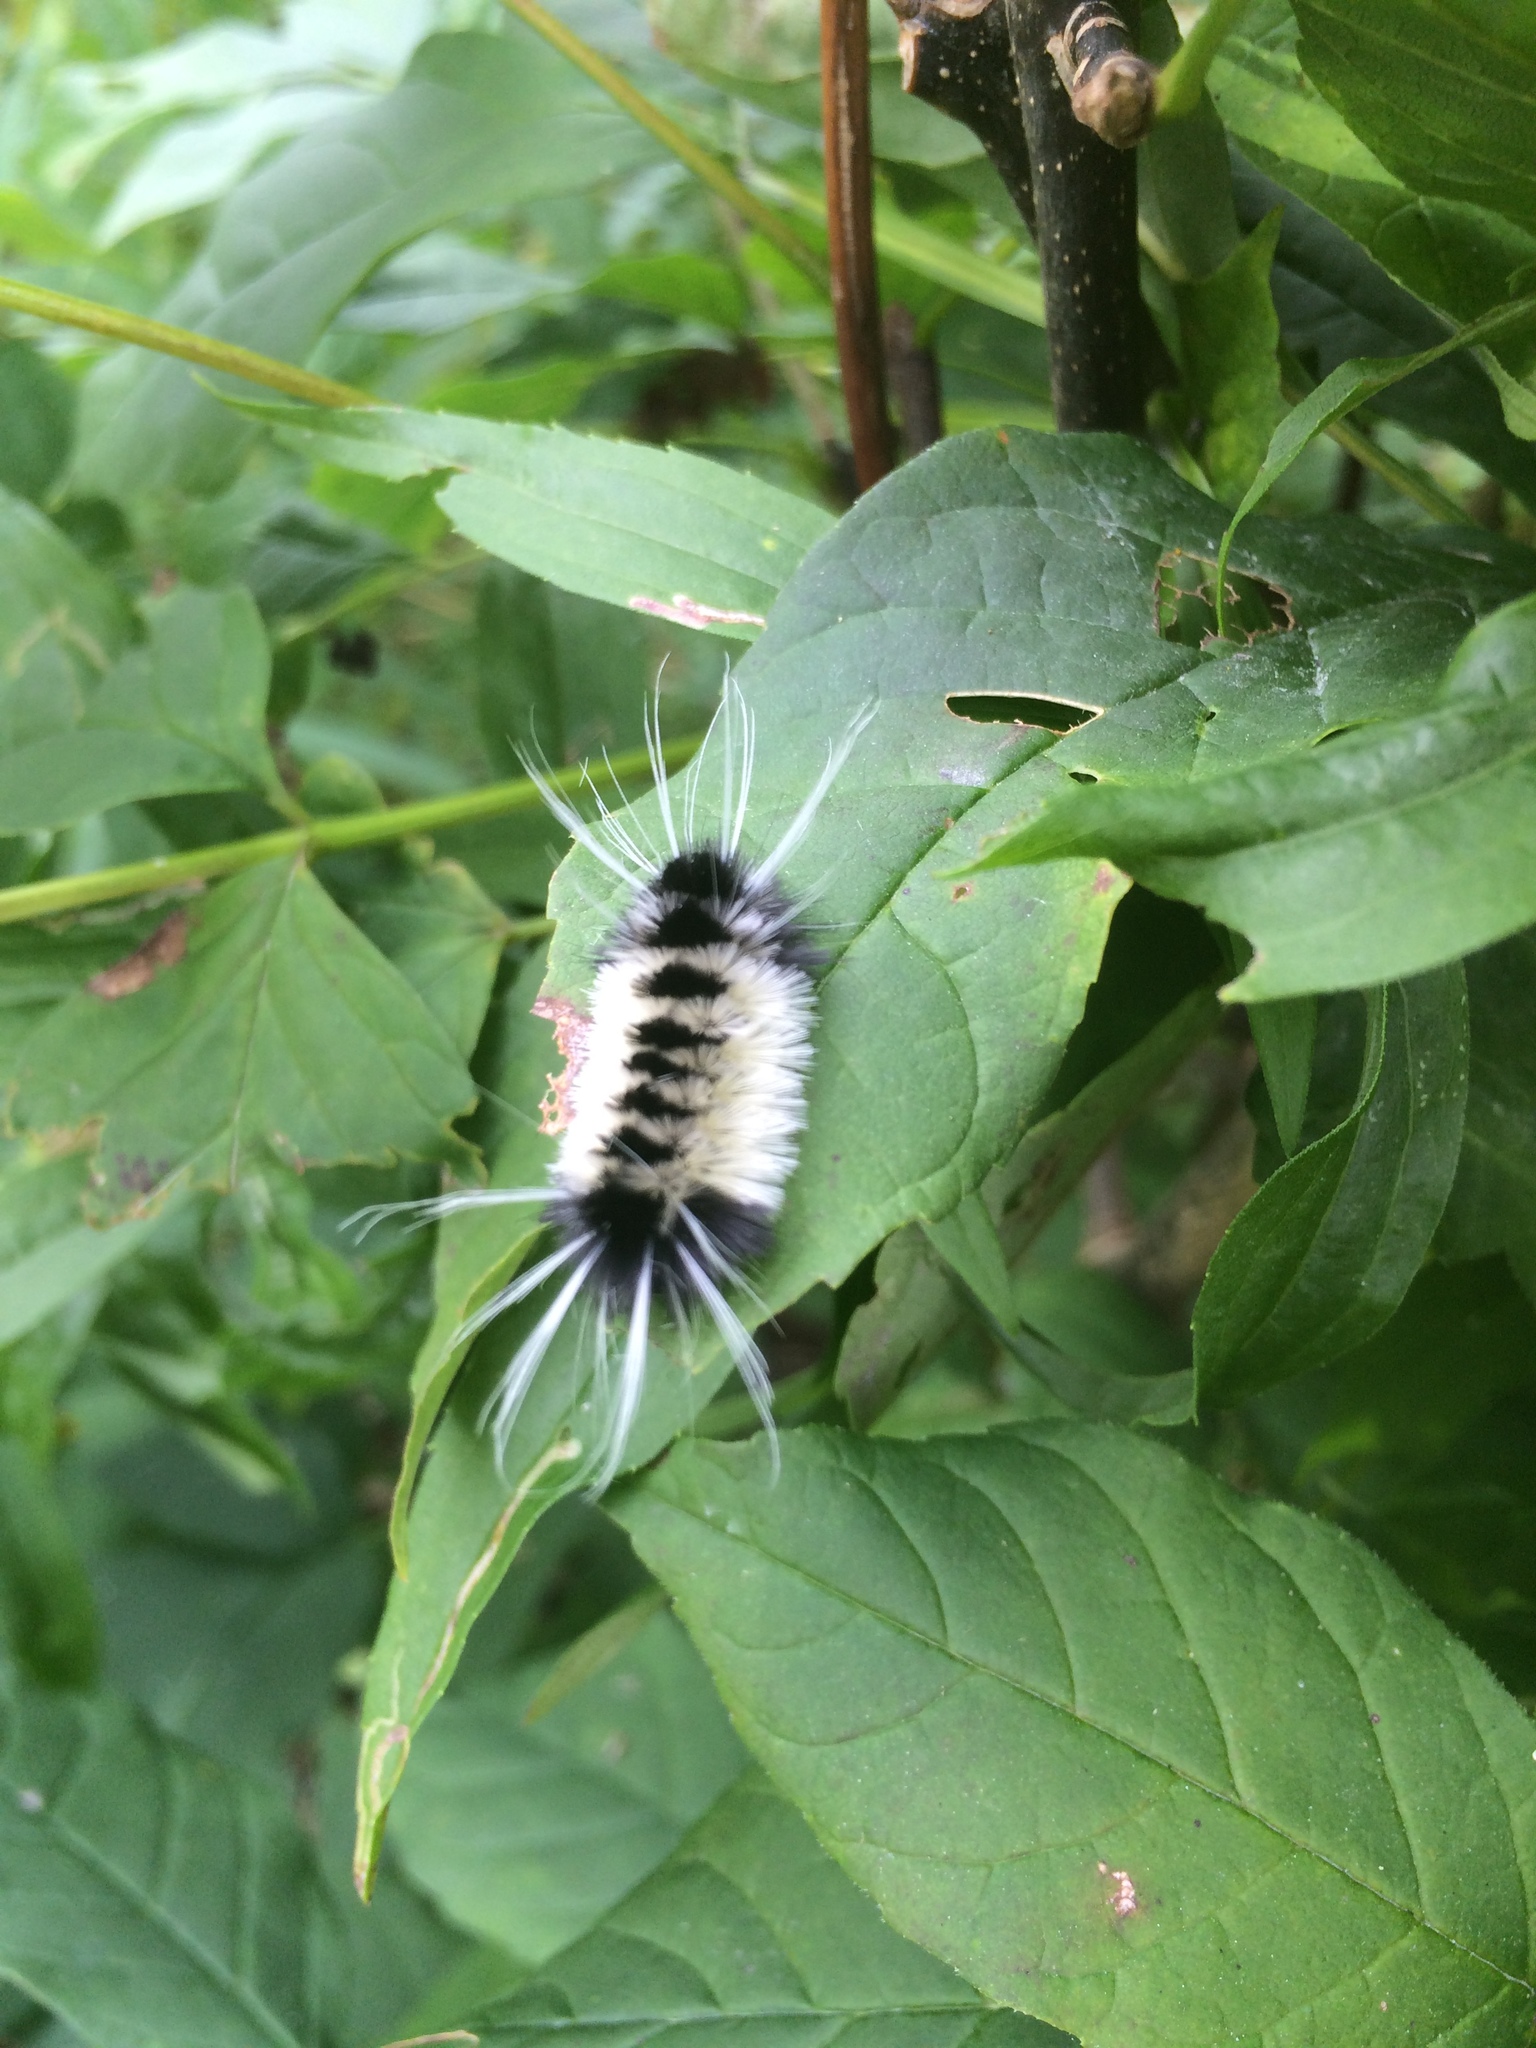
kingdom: Animalia
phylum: Arthropoda
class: Insecta
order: Lepidoptera
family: Erebidae
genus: Lophocampa
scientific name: Lophocampa maculata
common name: Spotted tussock moth
